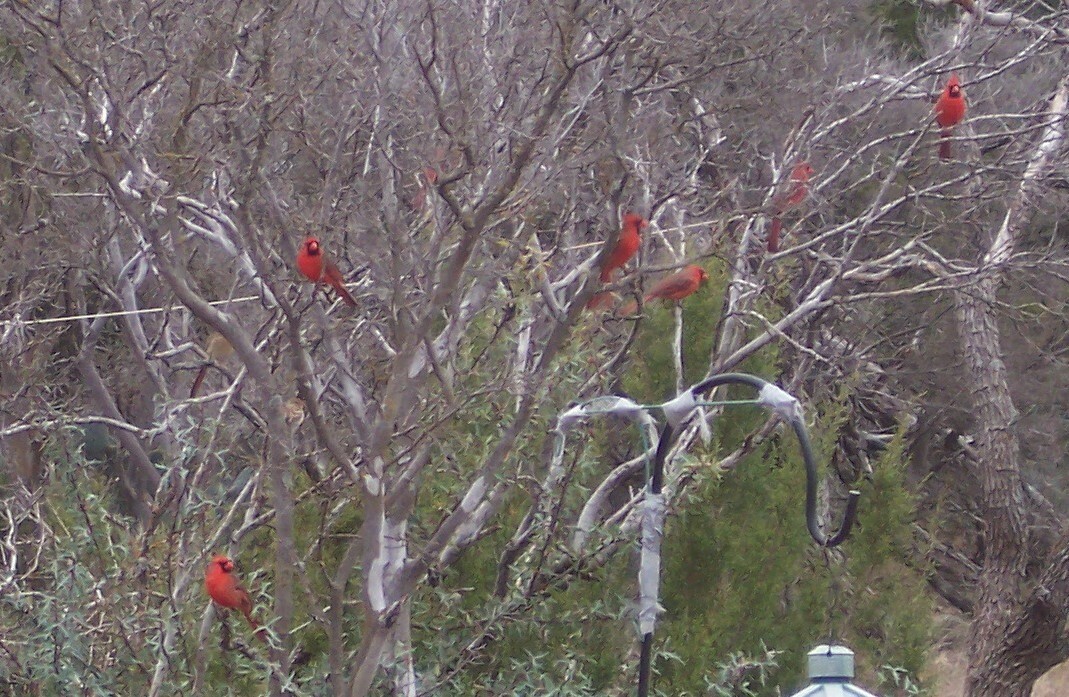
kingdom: Animalia
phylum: Chordata
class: Aves
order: Passeriformes
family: Cardinalidae
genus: Cardinalis
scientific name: Cardinalis cardinalis
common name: Northern cardinal
